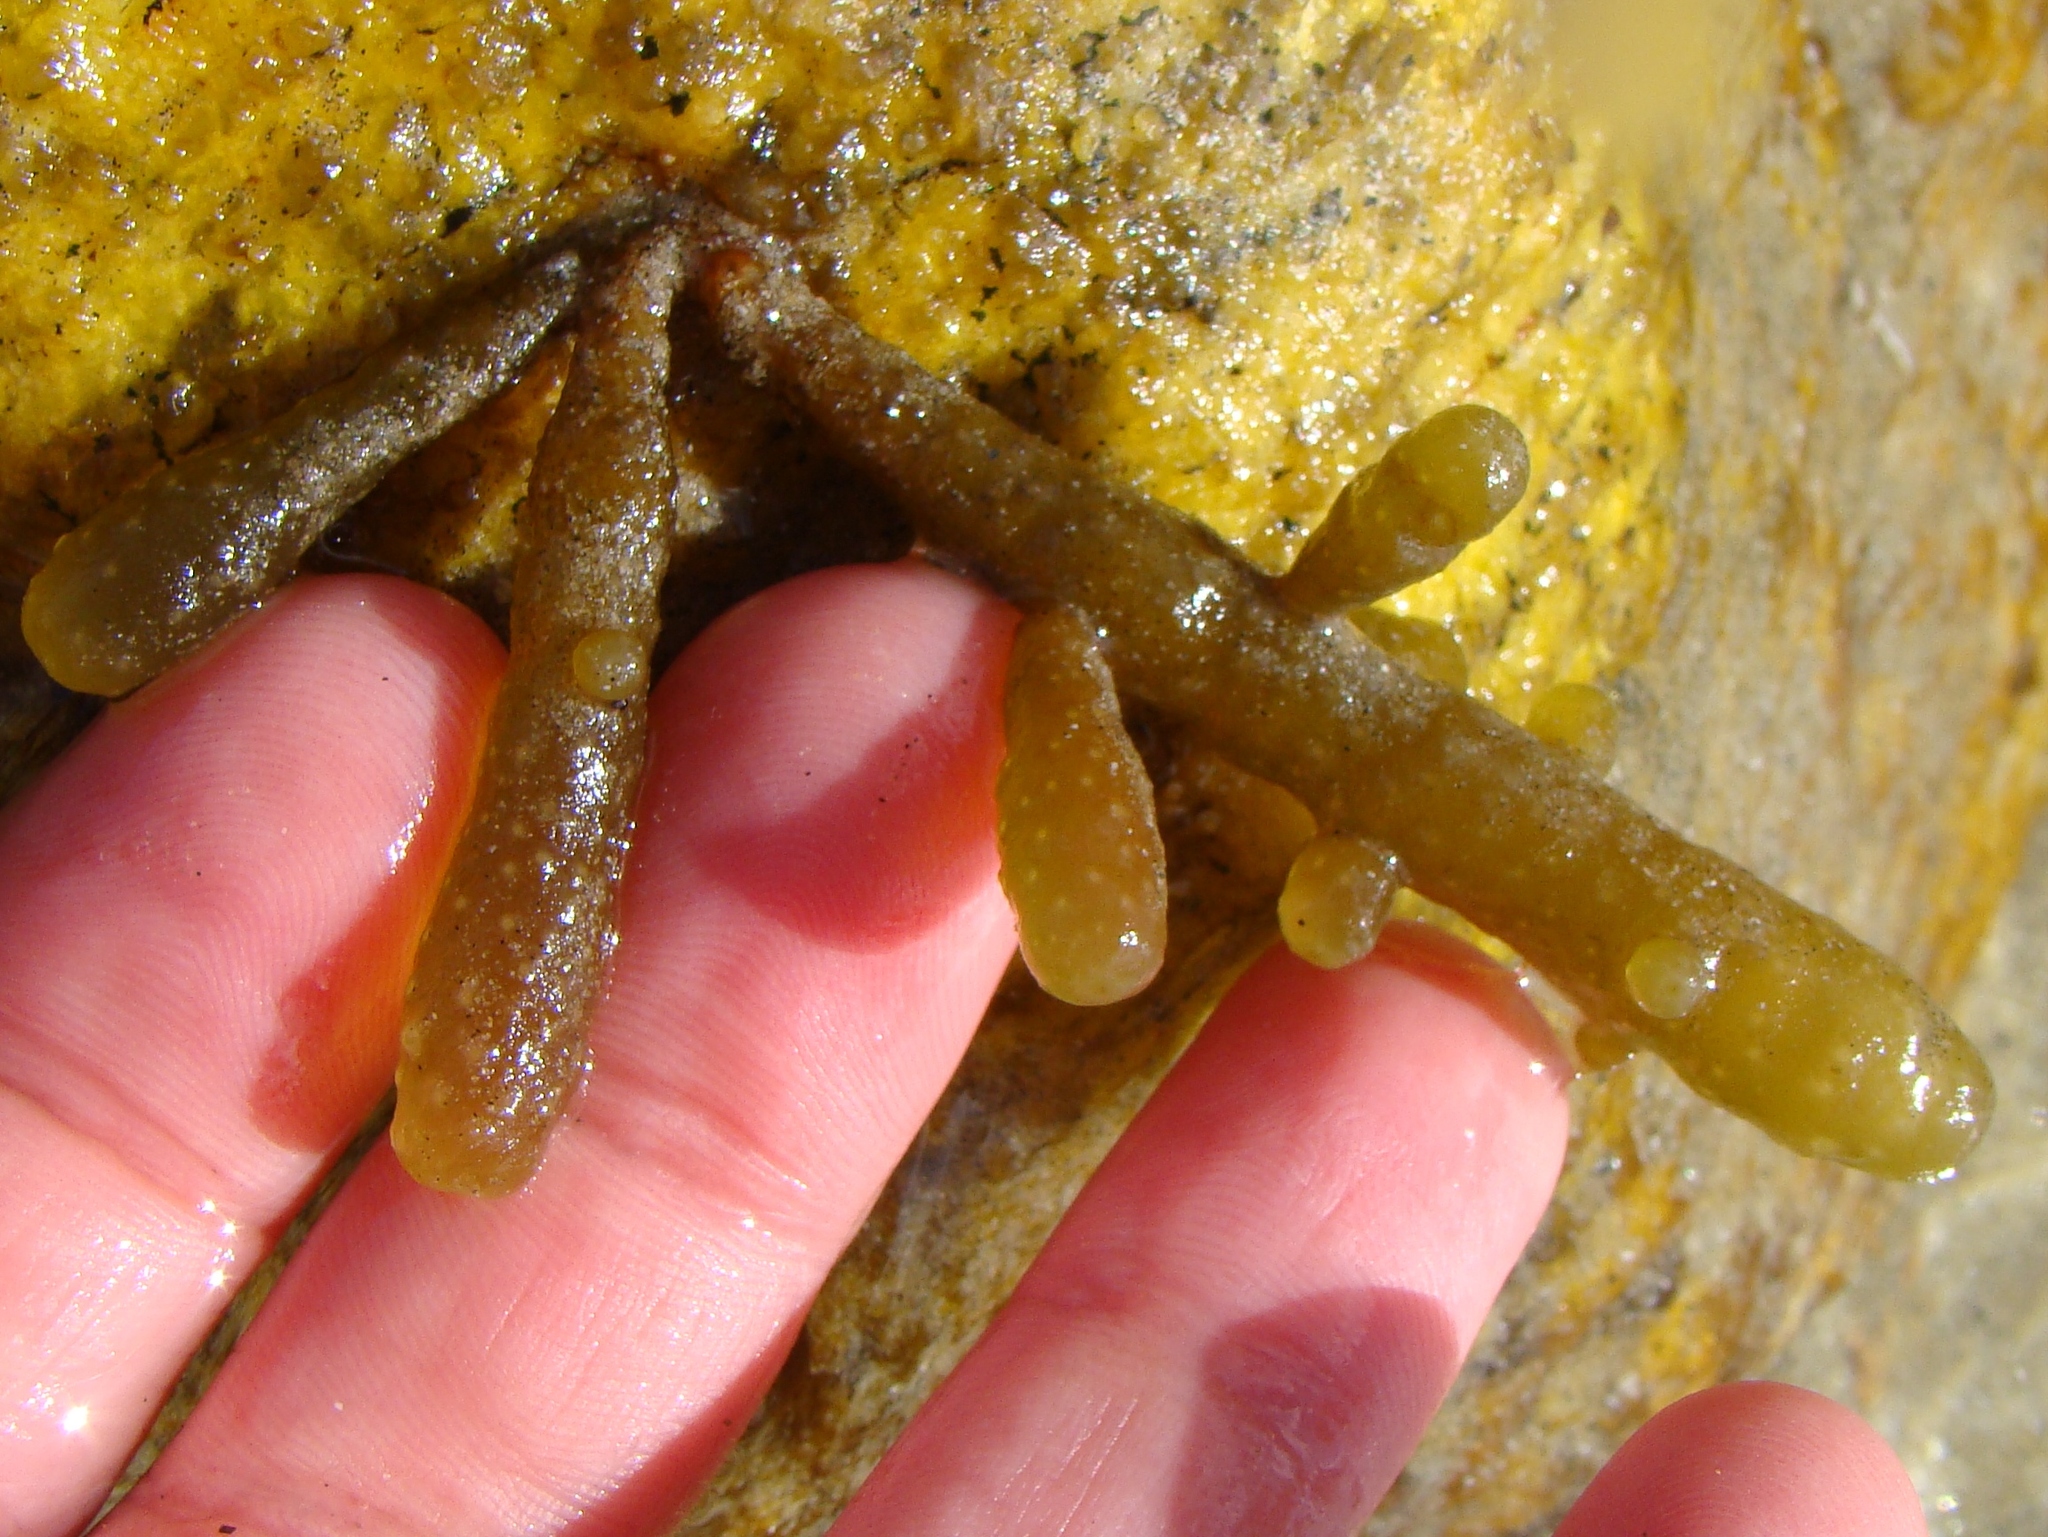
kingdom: Chromista
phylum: Ochrophyta
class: Phaeophyceae
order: Scytothamnales
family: Splachnidiaceae
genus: Splachnidium
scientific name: Splachnidium rugosum
